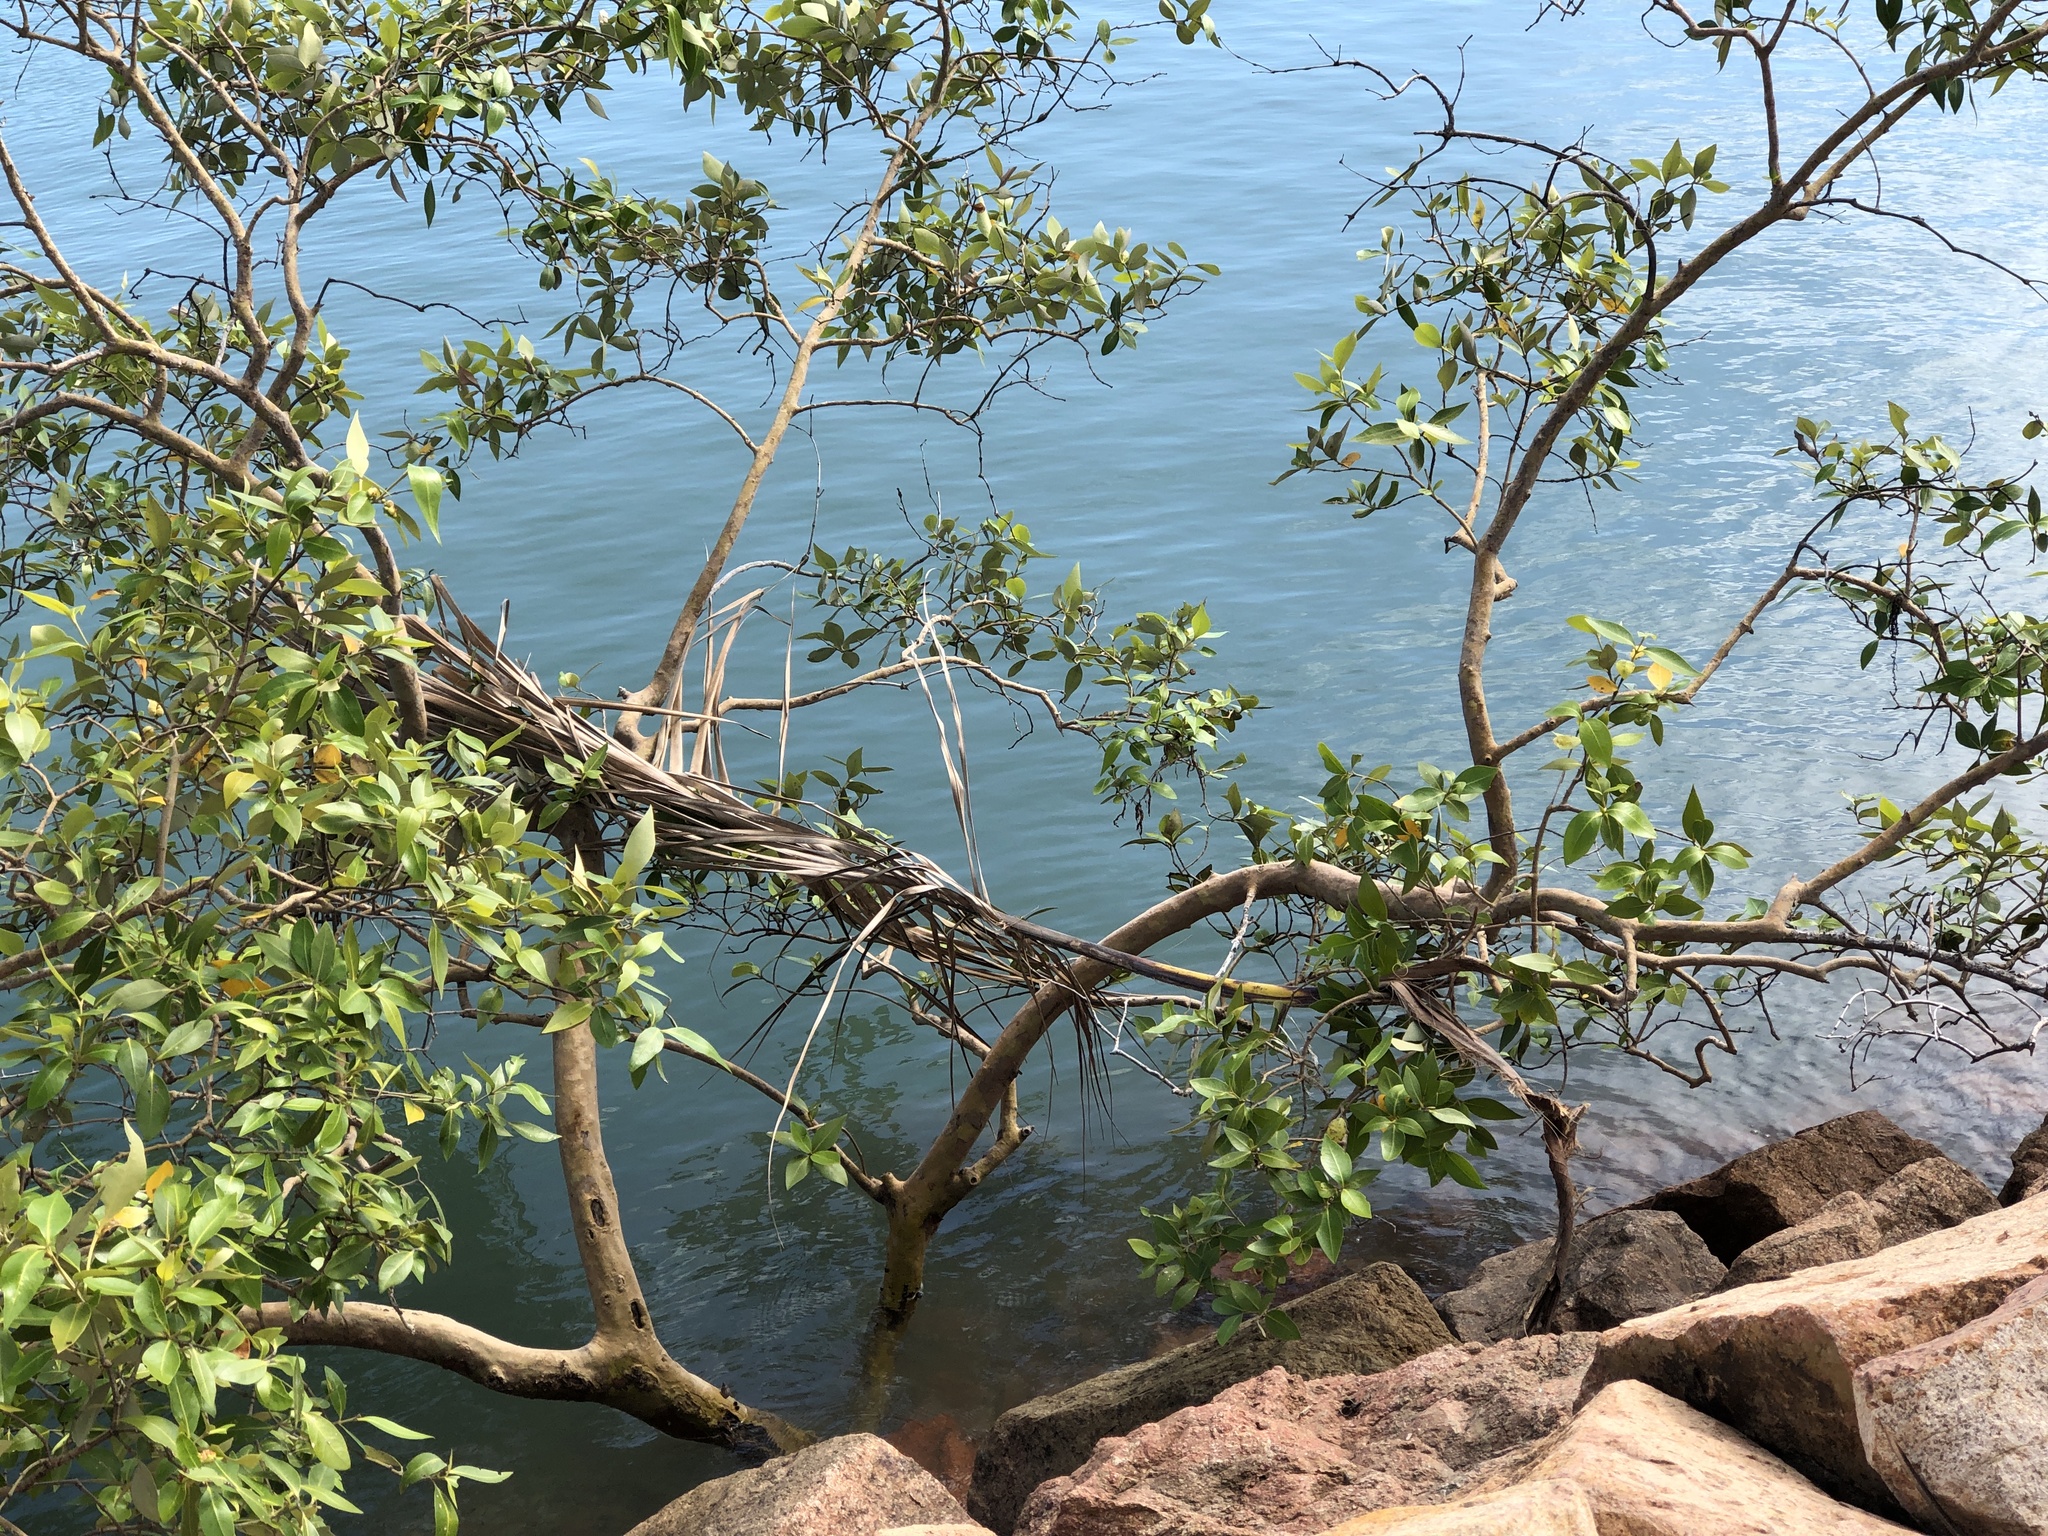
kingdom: Plantae
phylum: Tracheophyta
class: Magnoliopsida
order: Lamiales
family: Acanthaceae
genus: Avicennia
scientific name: Avicennia marina
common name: Gray mangrove
